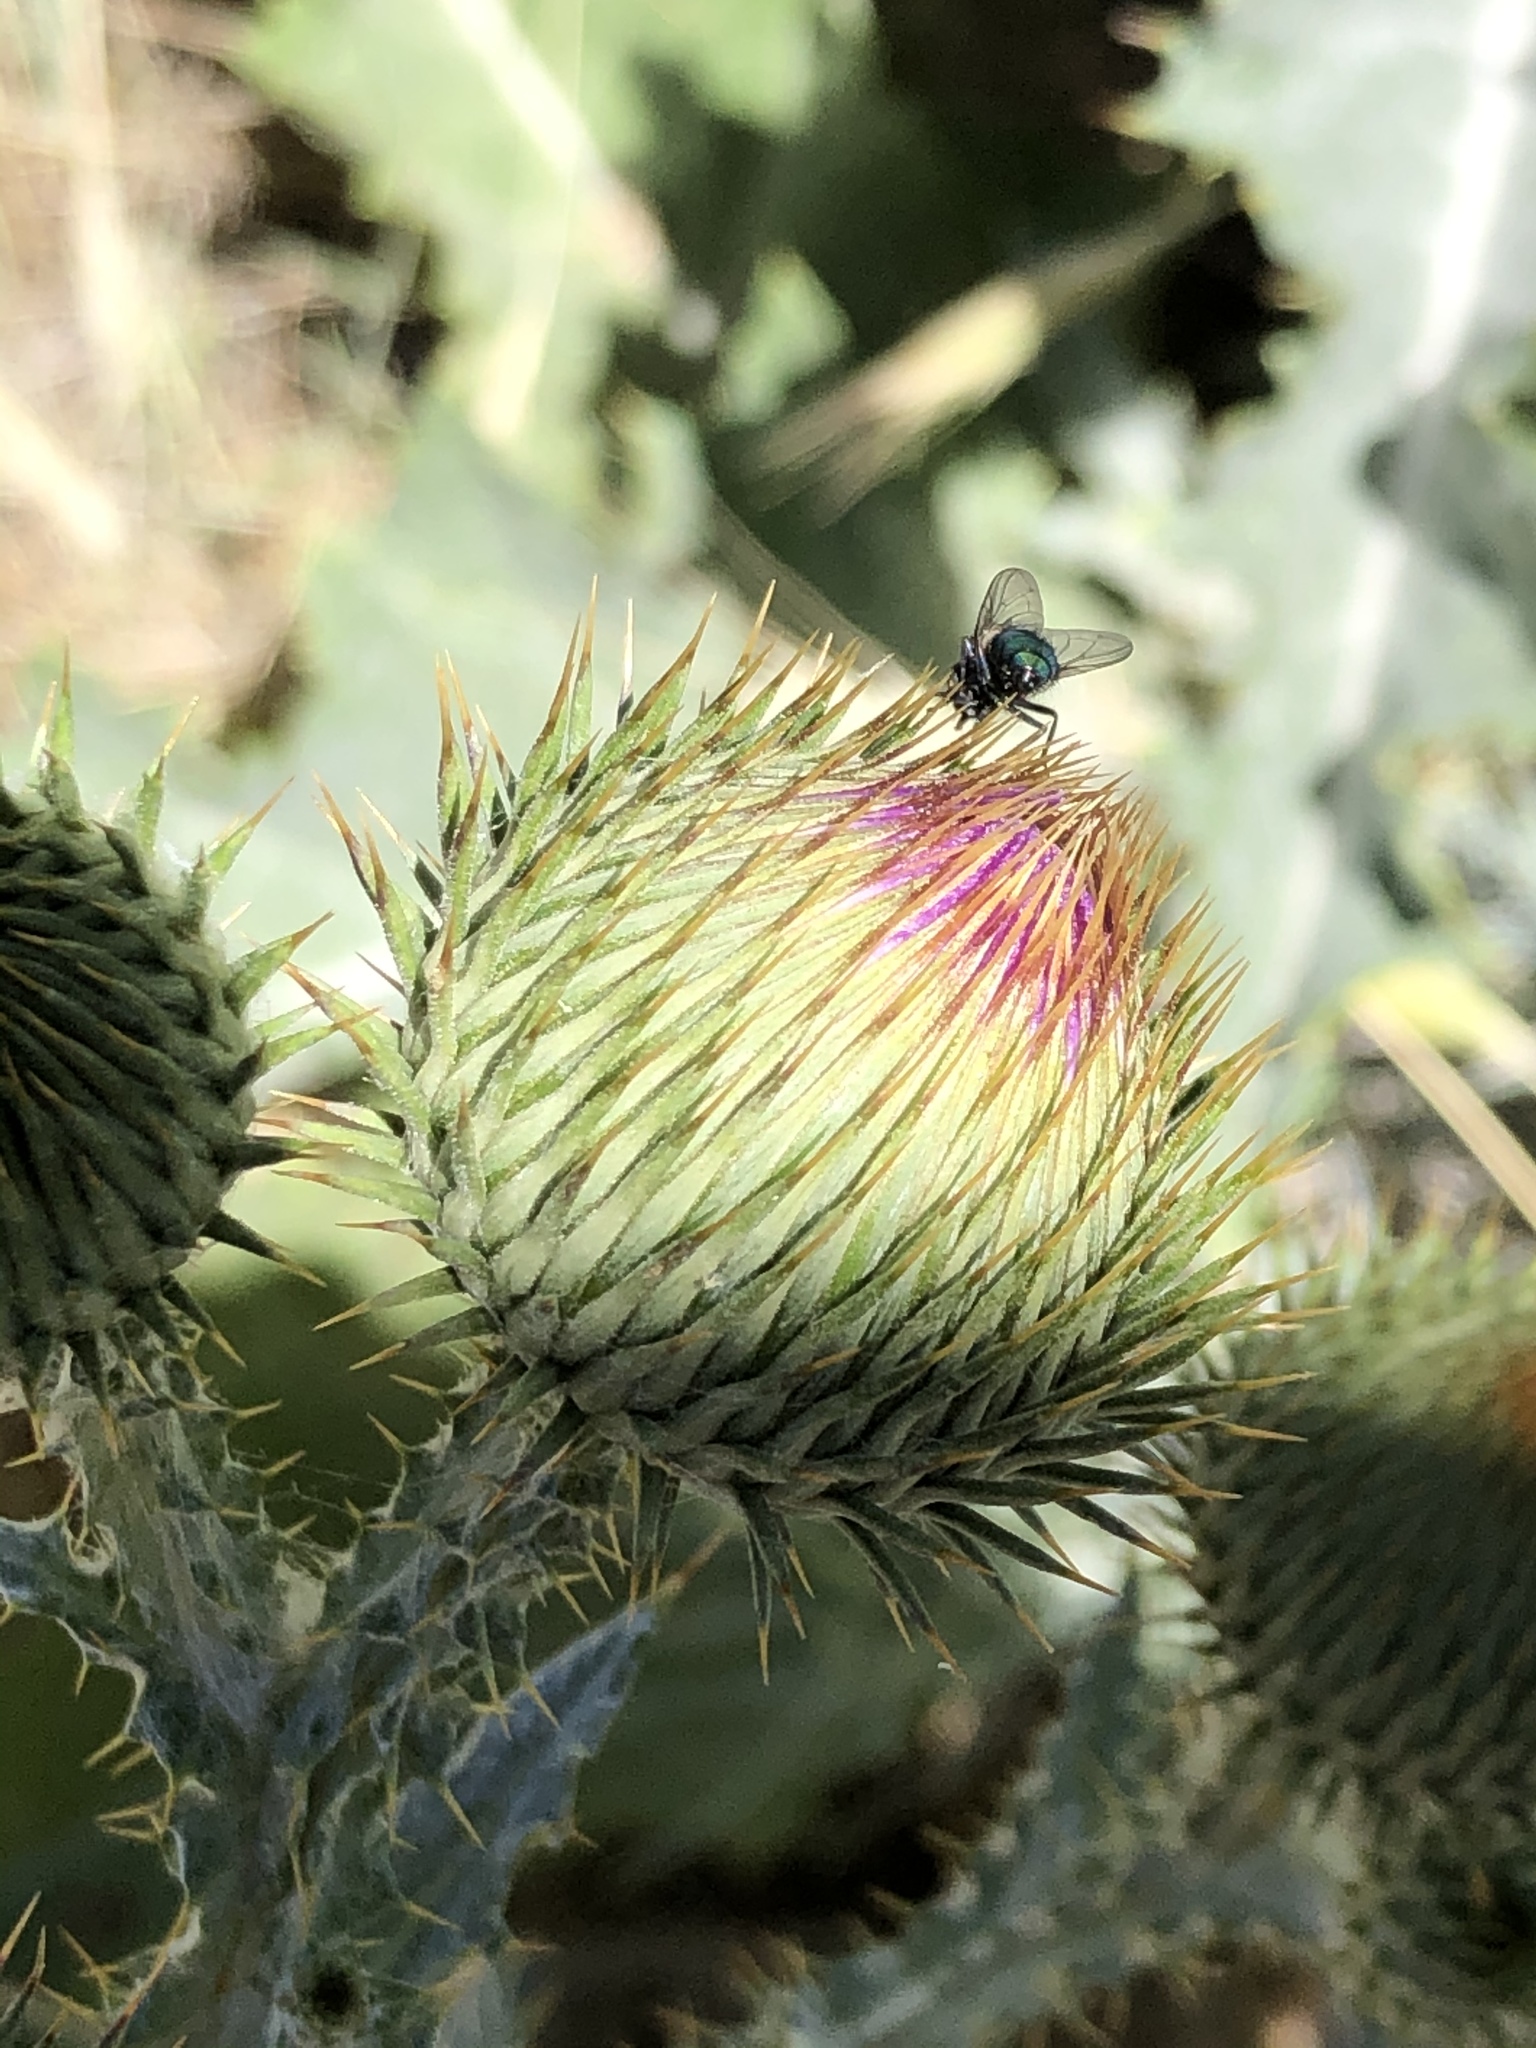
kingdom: Animalia
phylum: Arthropoda
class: Insecta
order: Diptera
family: Calliphoridae
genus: Lucilia
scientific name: Lucilia sericata
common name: Blow fly
